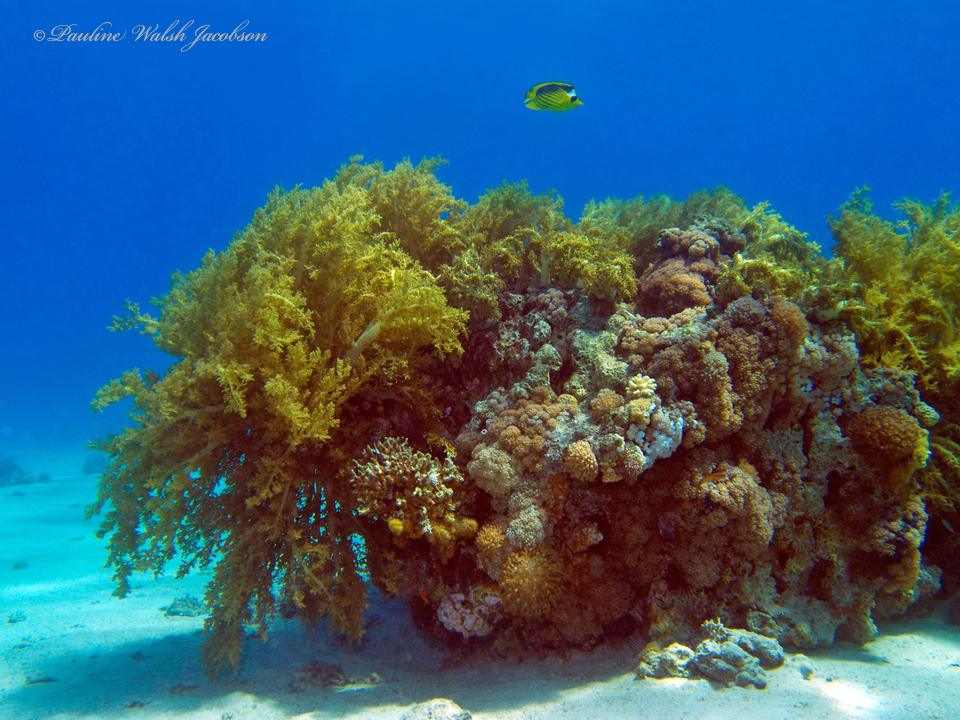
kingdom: Animalia
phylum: Chordata
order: Perciformes
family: Chaetodontidae
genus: Chaetodon
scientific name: Chaetodon fasciatus
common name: Diagonal butterflyfish
